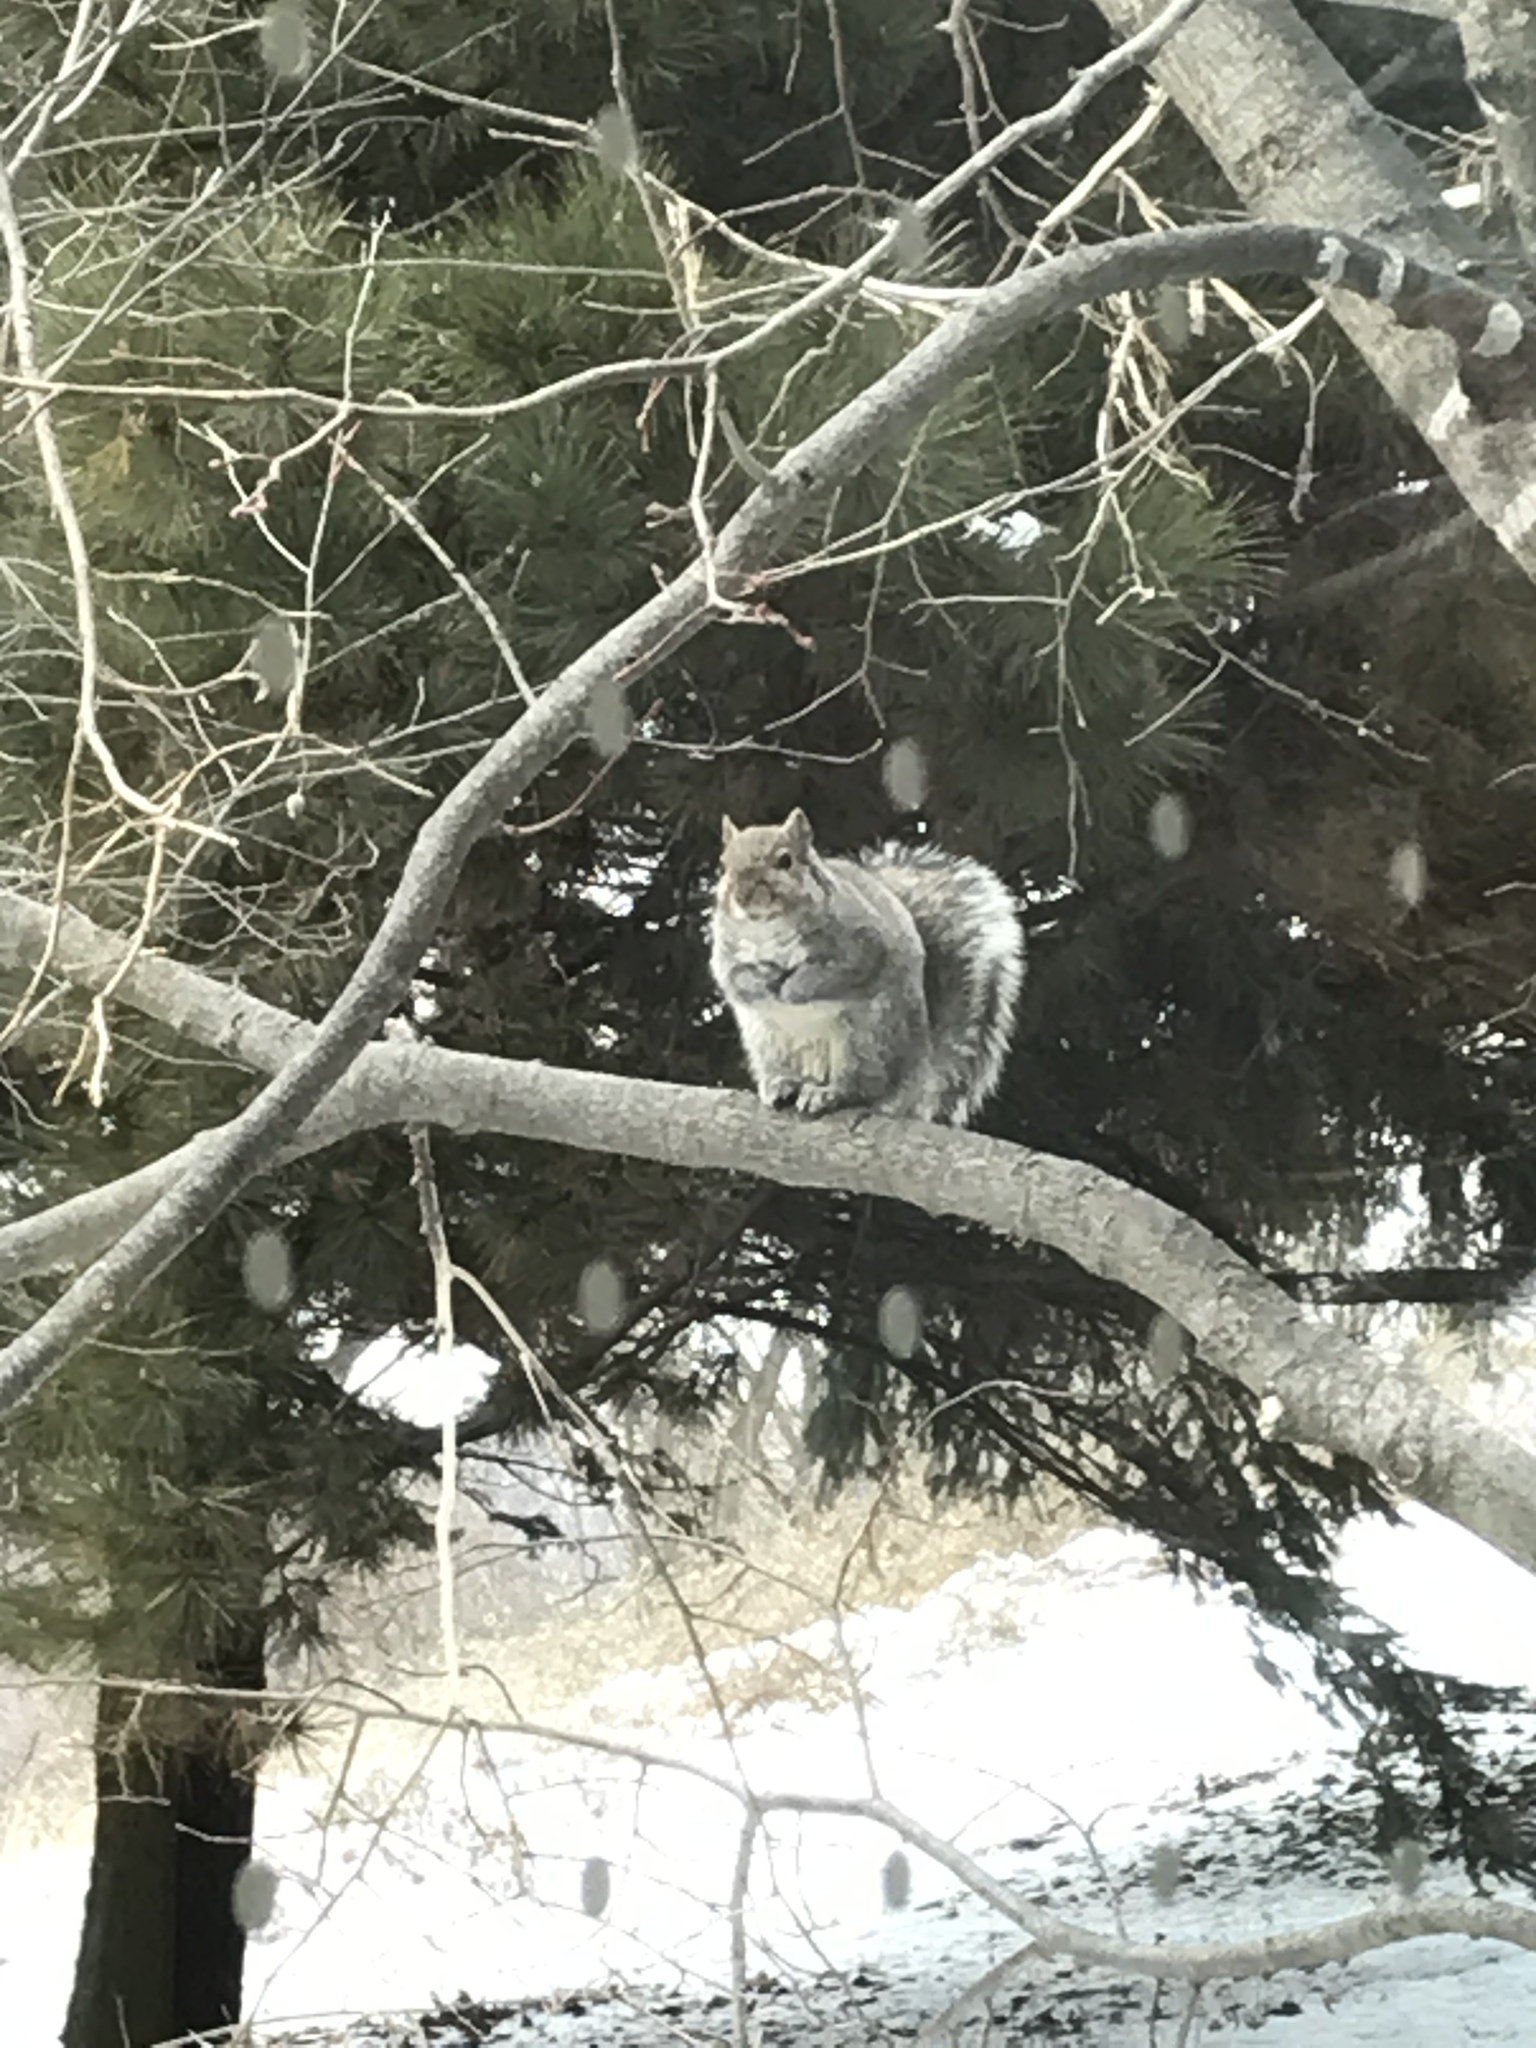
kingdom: Animalia
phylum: Chordata
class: Mammalia
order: Rodentia
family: Sciuridae
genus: Sciurus
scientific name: Sciurus carolinensis
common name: Eastern gray squirrel
